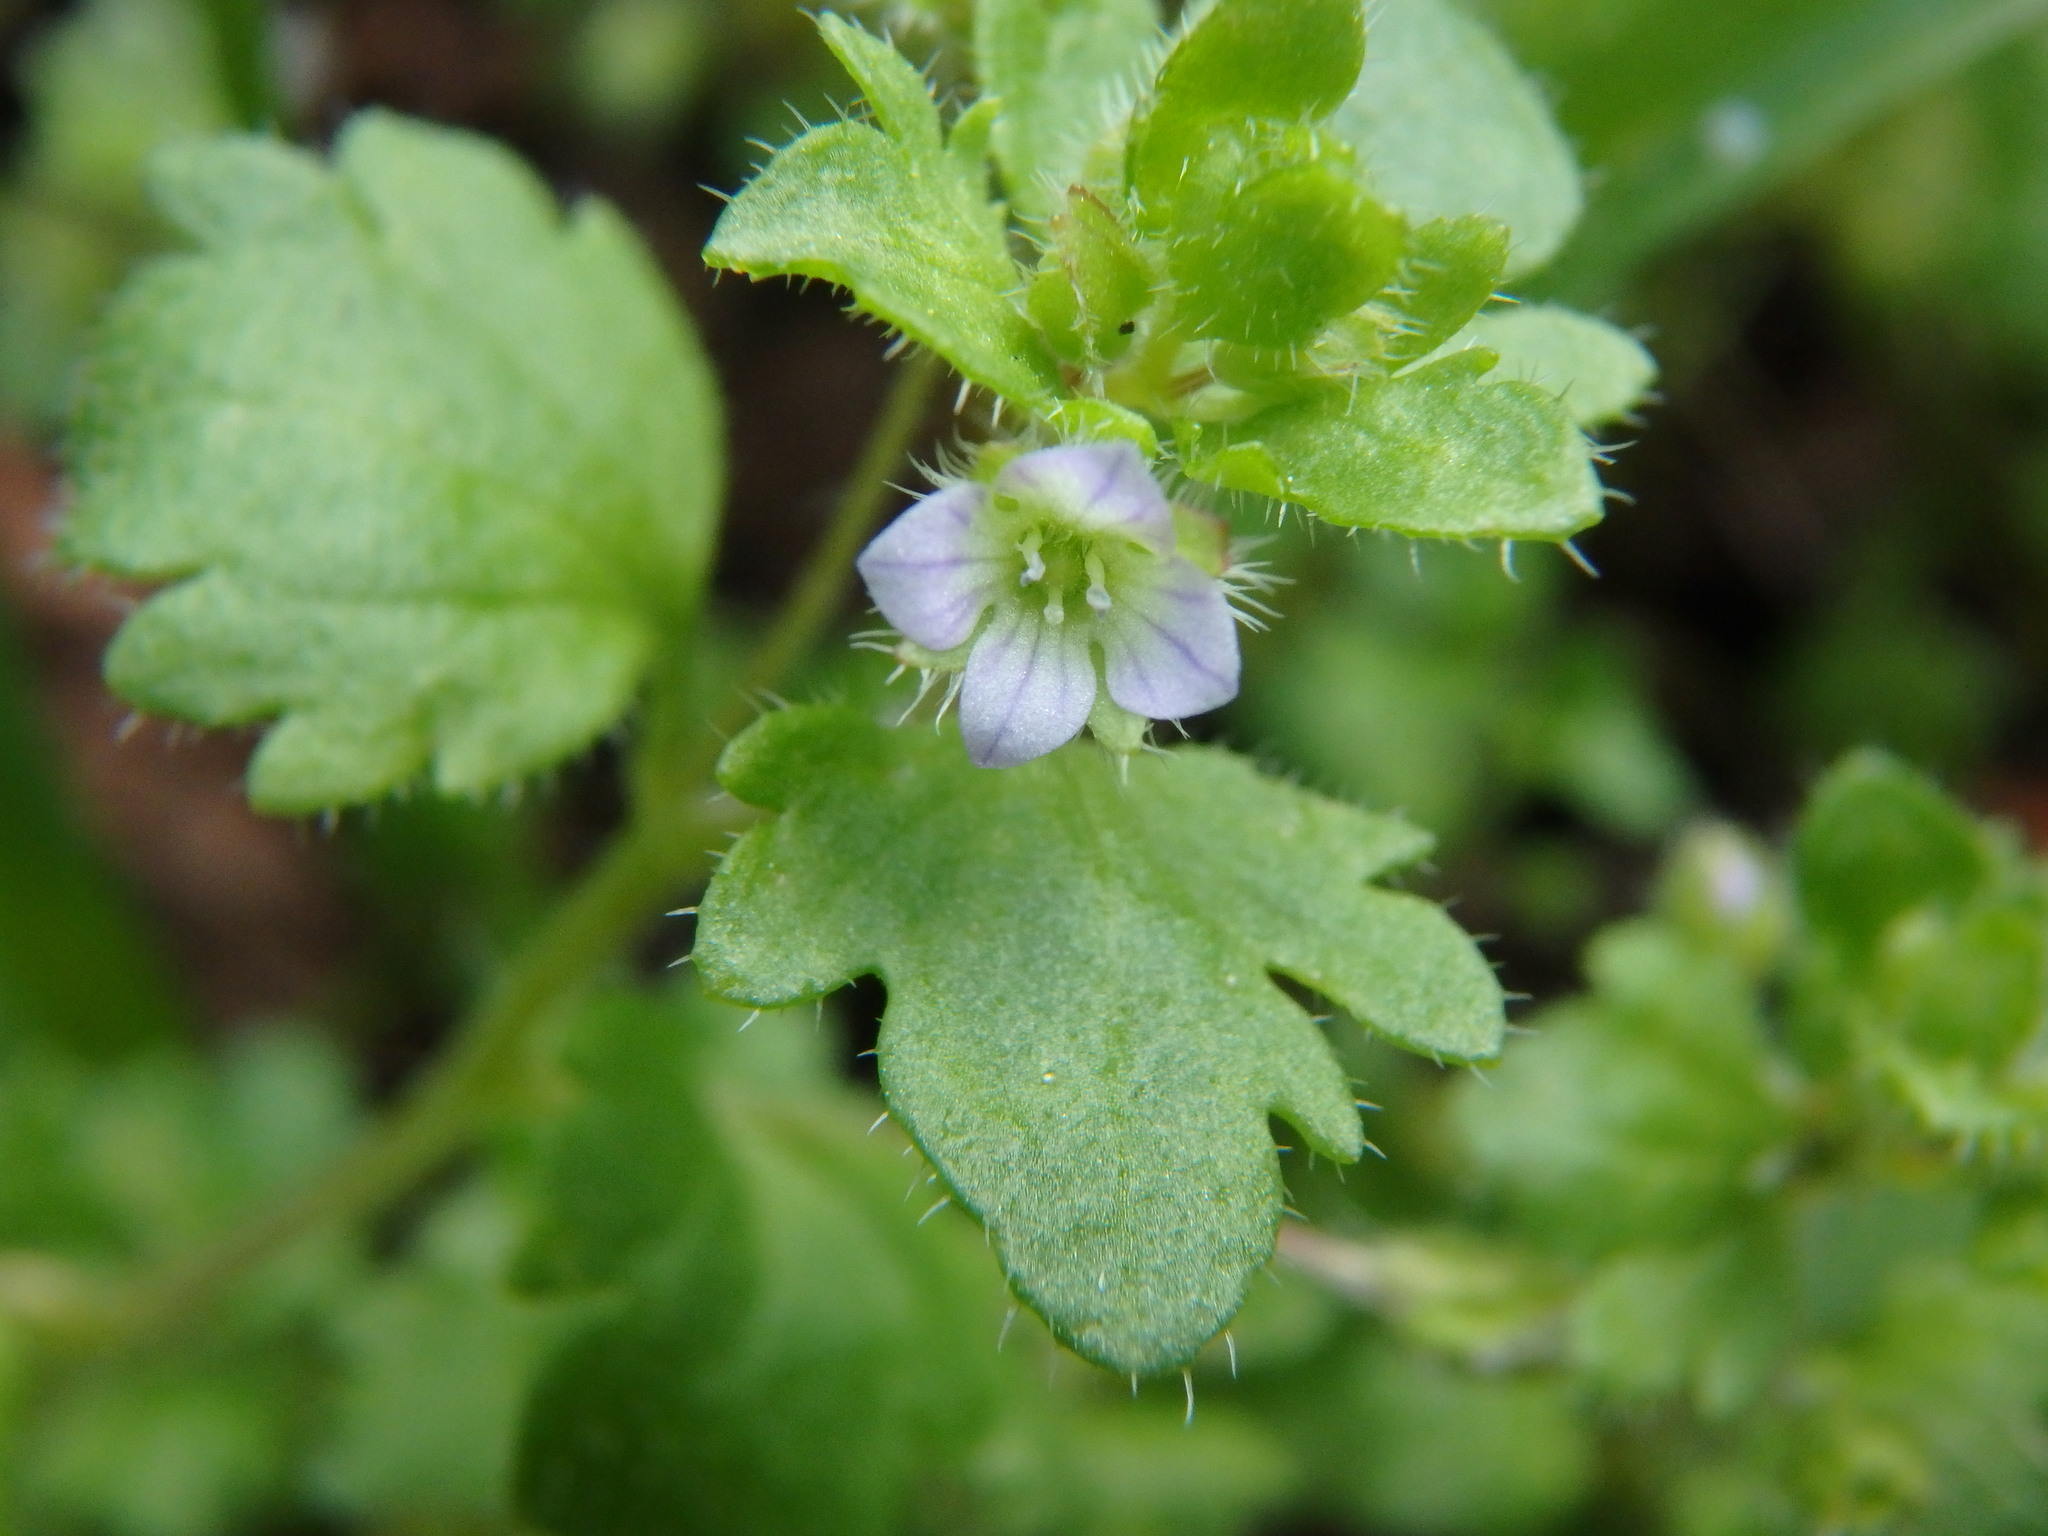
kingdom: Plantae
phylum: Tracheophyta
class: Magnoliopsida
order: Lamiales
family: Plantaginaceae
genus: Veronica
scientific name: Veronica hederifolia
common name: Ivy-leaved speedwell
